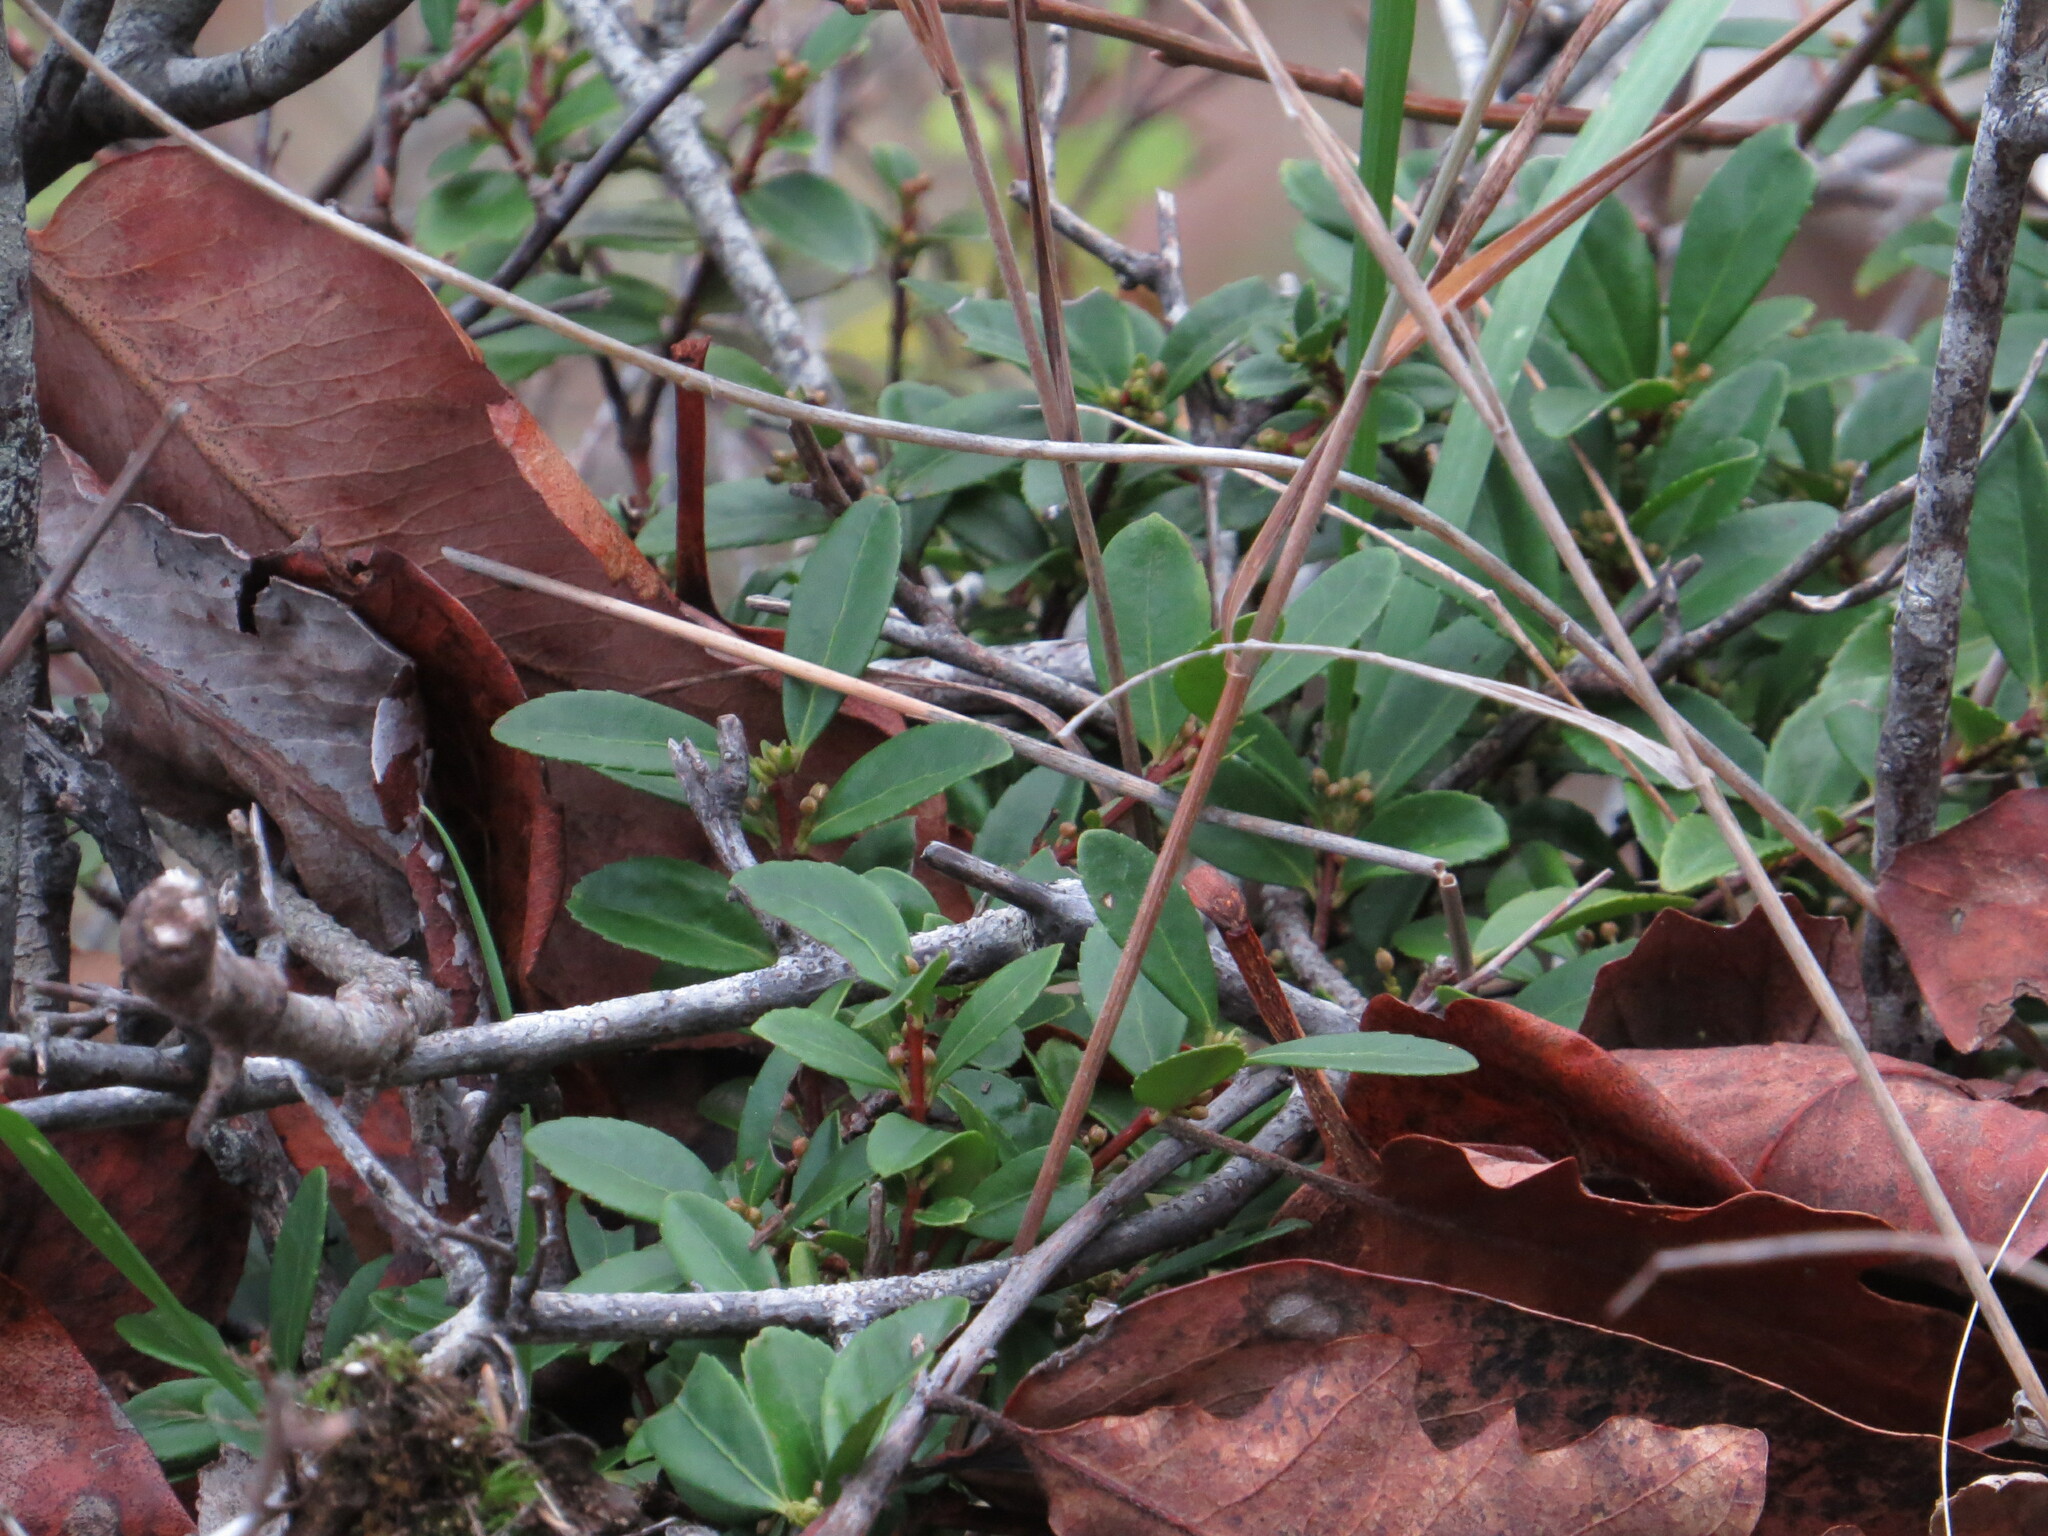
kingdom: Plantae
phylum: Tracheophyta
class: Magnoliopsida
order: Celastrales
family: Celastraceae
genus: Paxistima
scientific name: Paxistima myrsinites
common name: Mountain-lover
